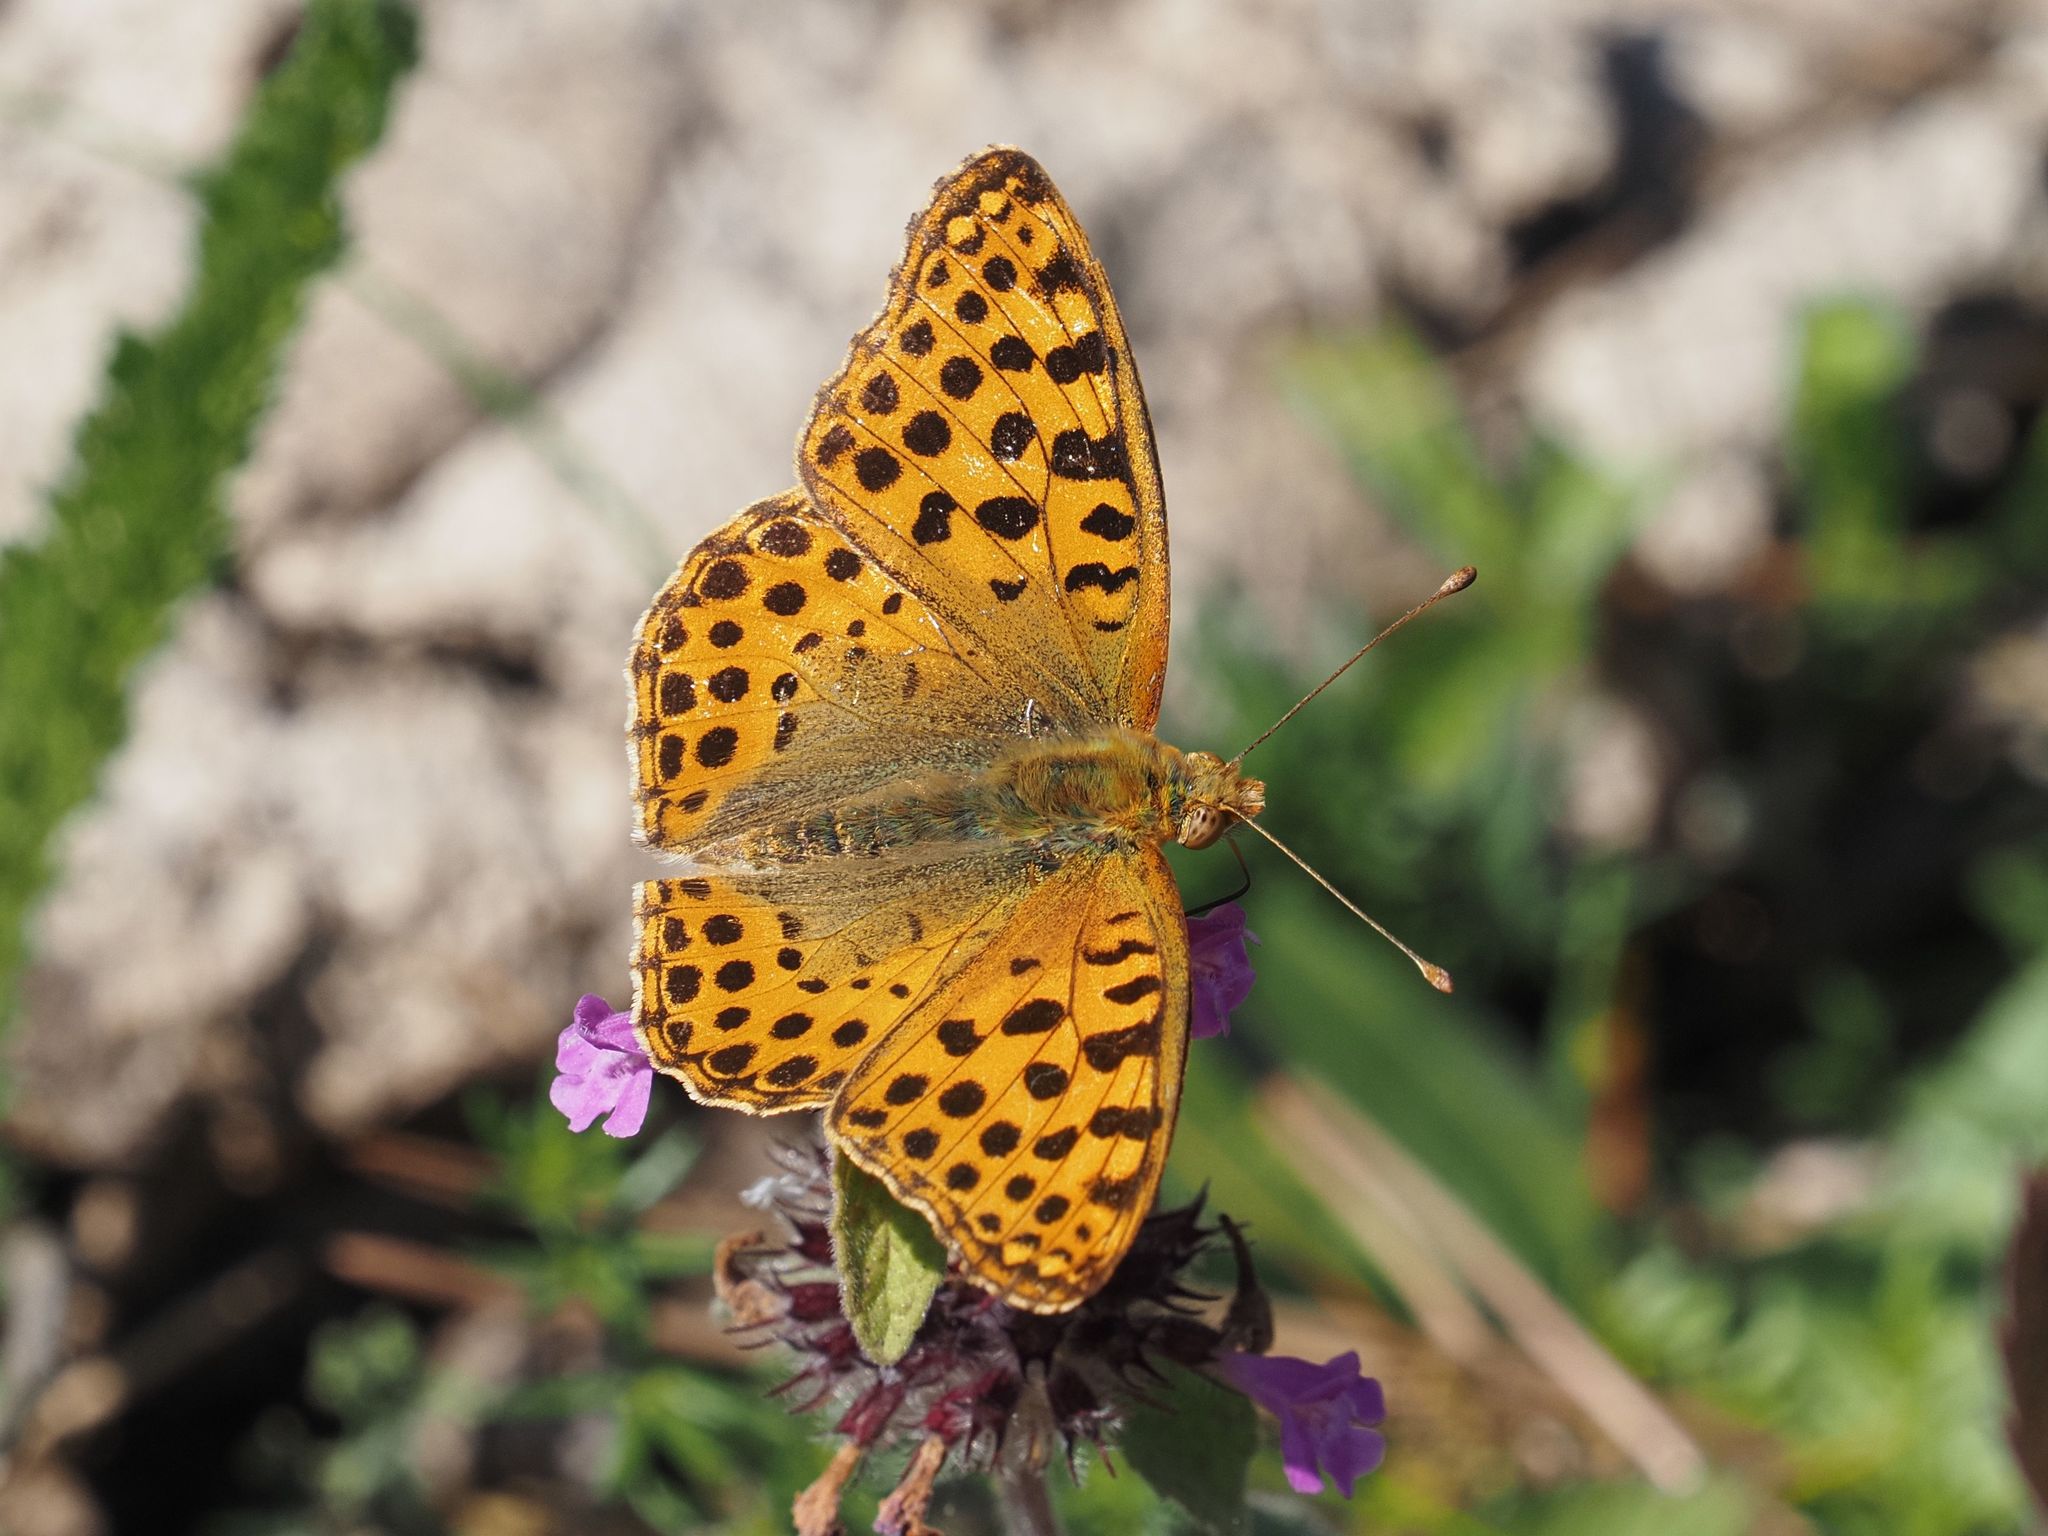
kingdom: Animalia
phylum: Arthropoda
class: Insecta
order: Lepidoptera
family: Nymphalidae
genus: Issoria
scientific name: Issoria lathonia
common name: Queen of spain fritillary
